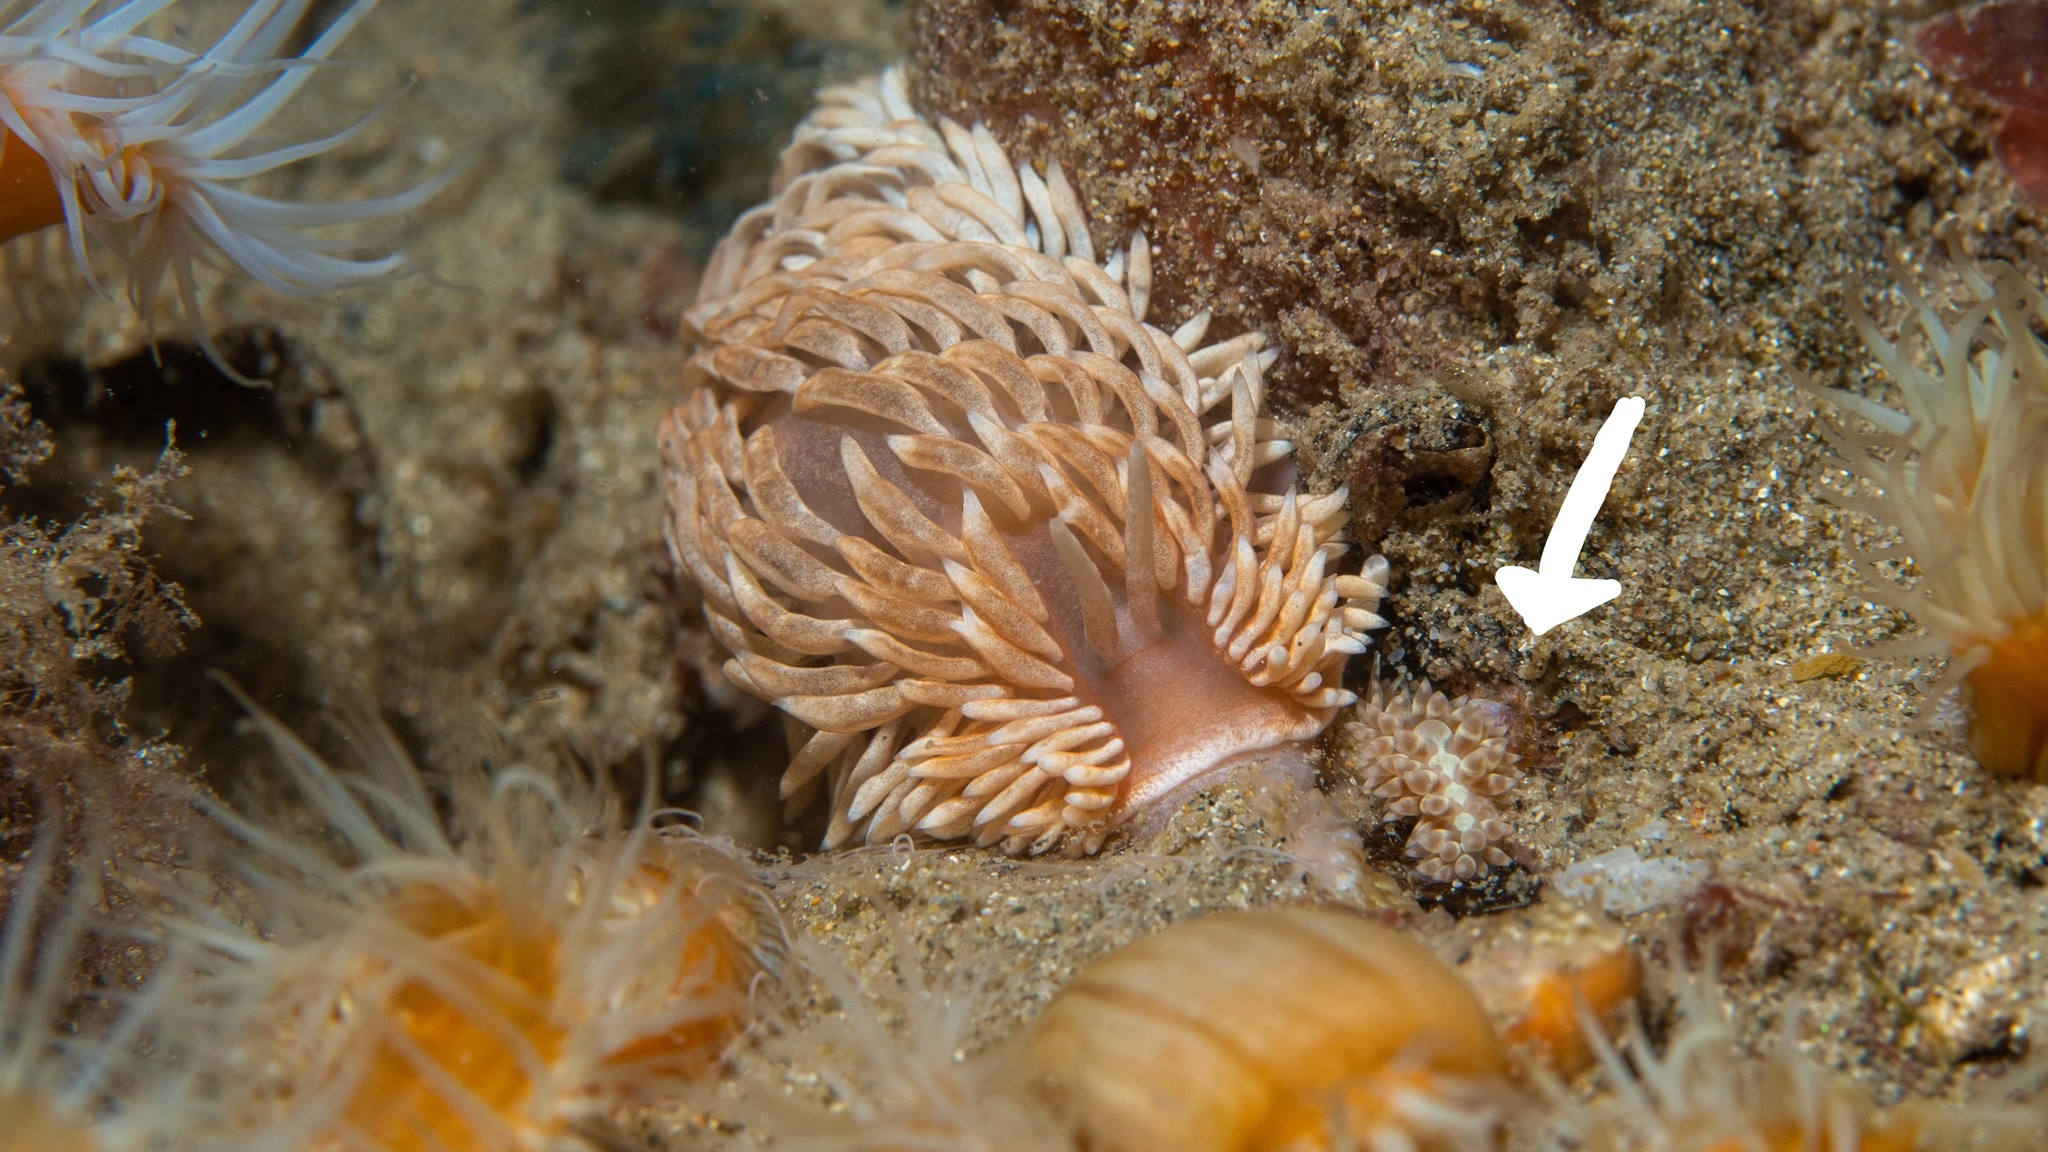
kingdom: Animalia
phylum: Mollusca
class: Gastropoda
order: Nudibranchia
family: Aeolidiidae
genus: Anteaeolidiella
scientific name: Anteaeolidiella lurana
